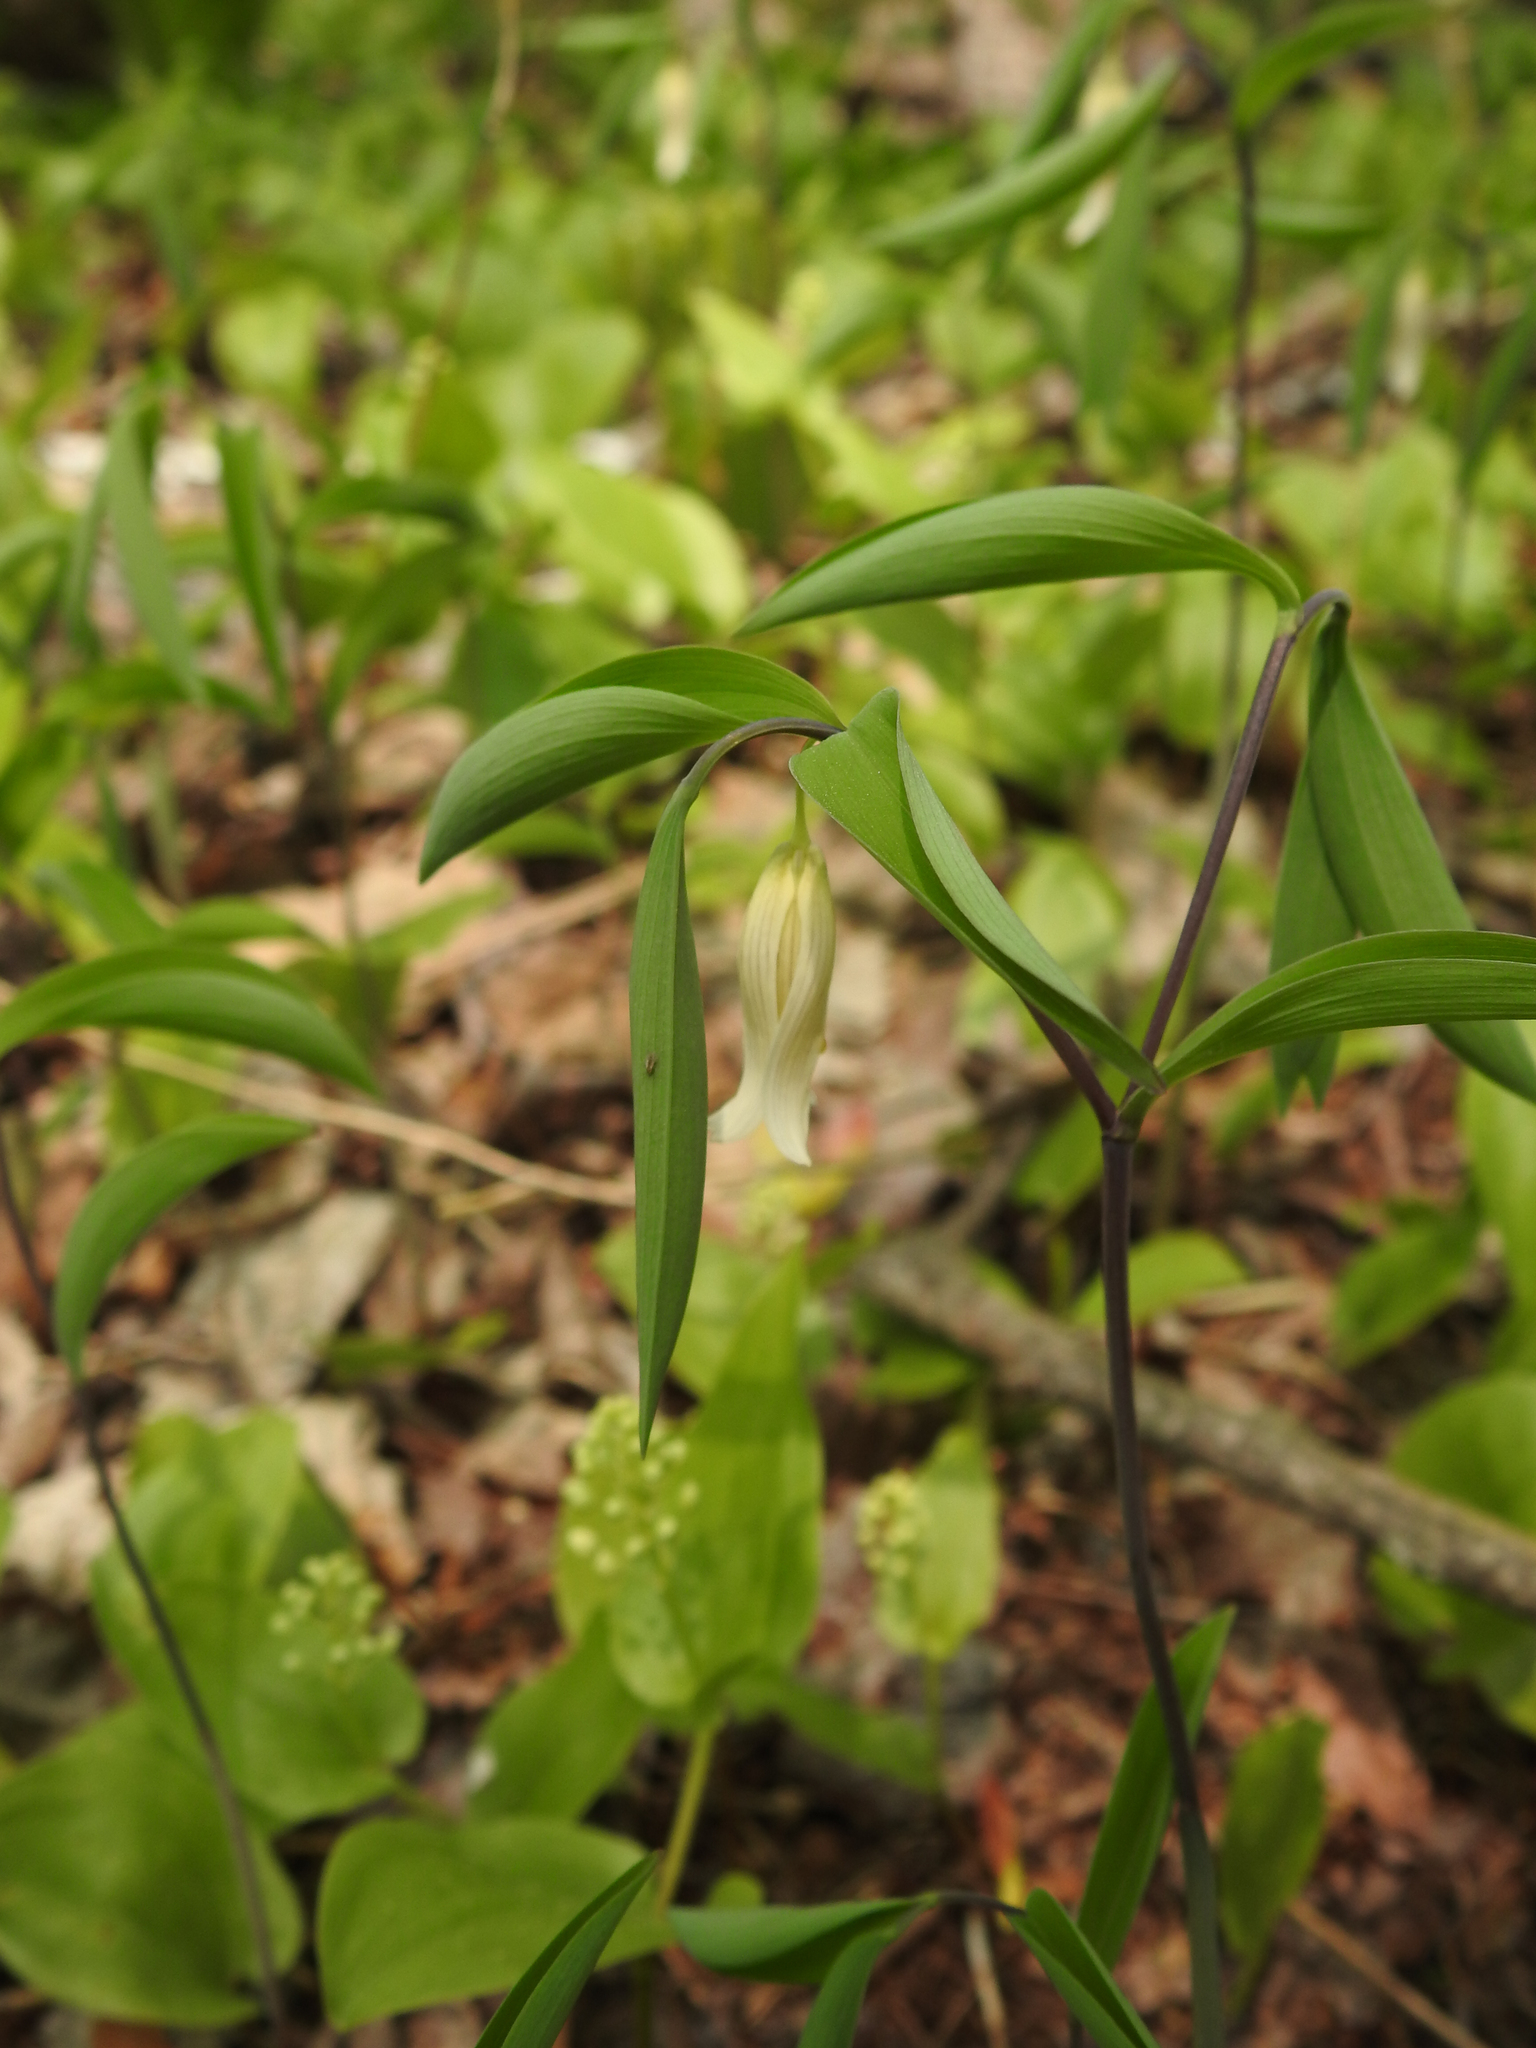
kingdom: Plantae
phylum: Tracheophyta
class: Liliopsida
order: Liliales
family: Colchicaceae
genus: Uvularia
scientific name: Uvularia sessilifolia
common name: Straw-lily
